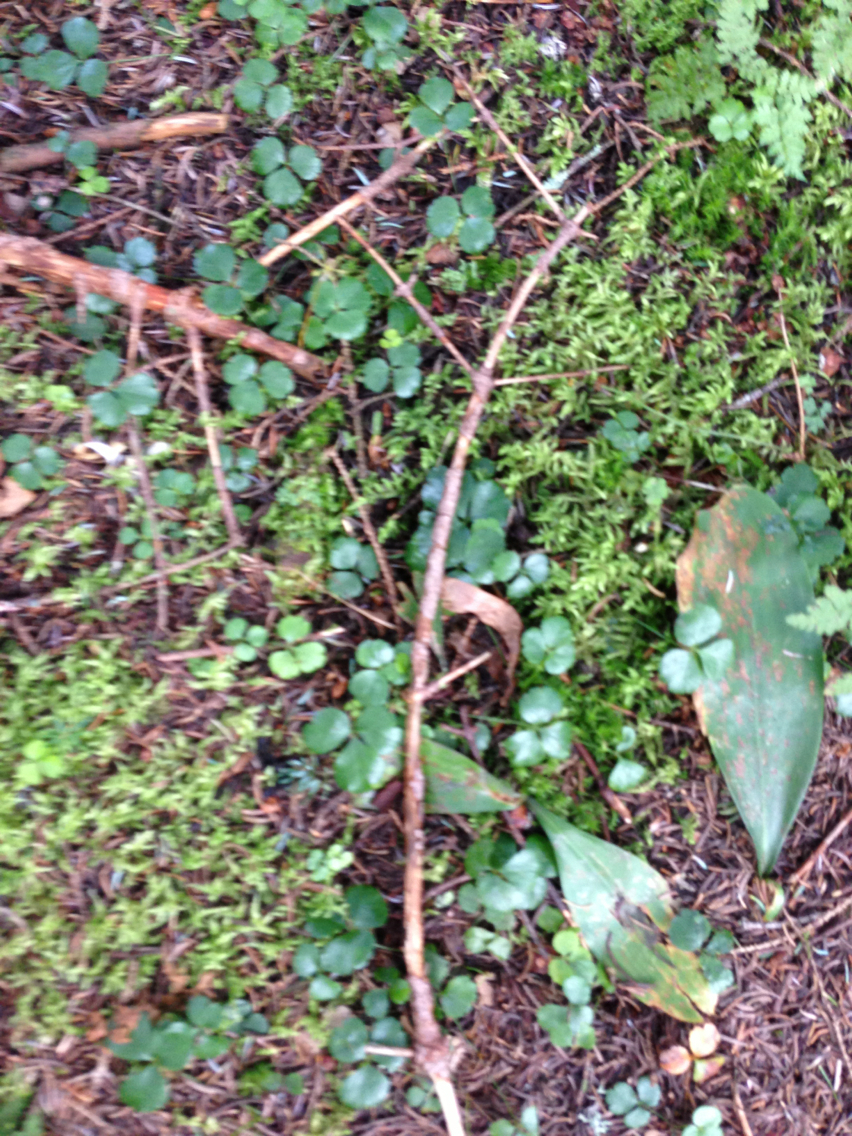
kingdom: Plantae
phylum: Tracheophyta
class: Magnoliopsida
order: Ranunculales
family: Ranunculaceae
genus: Coptis
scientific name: Coptis trifolia
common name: Canker-root
